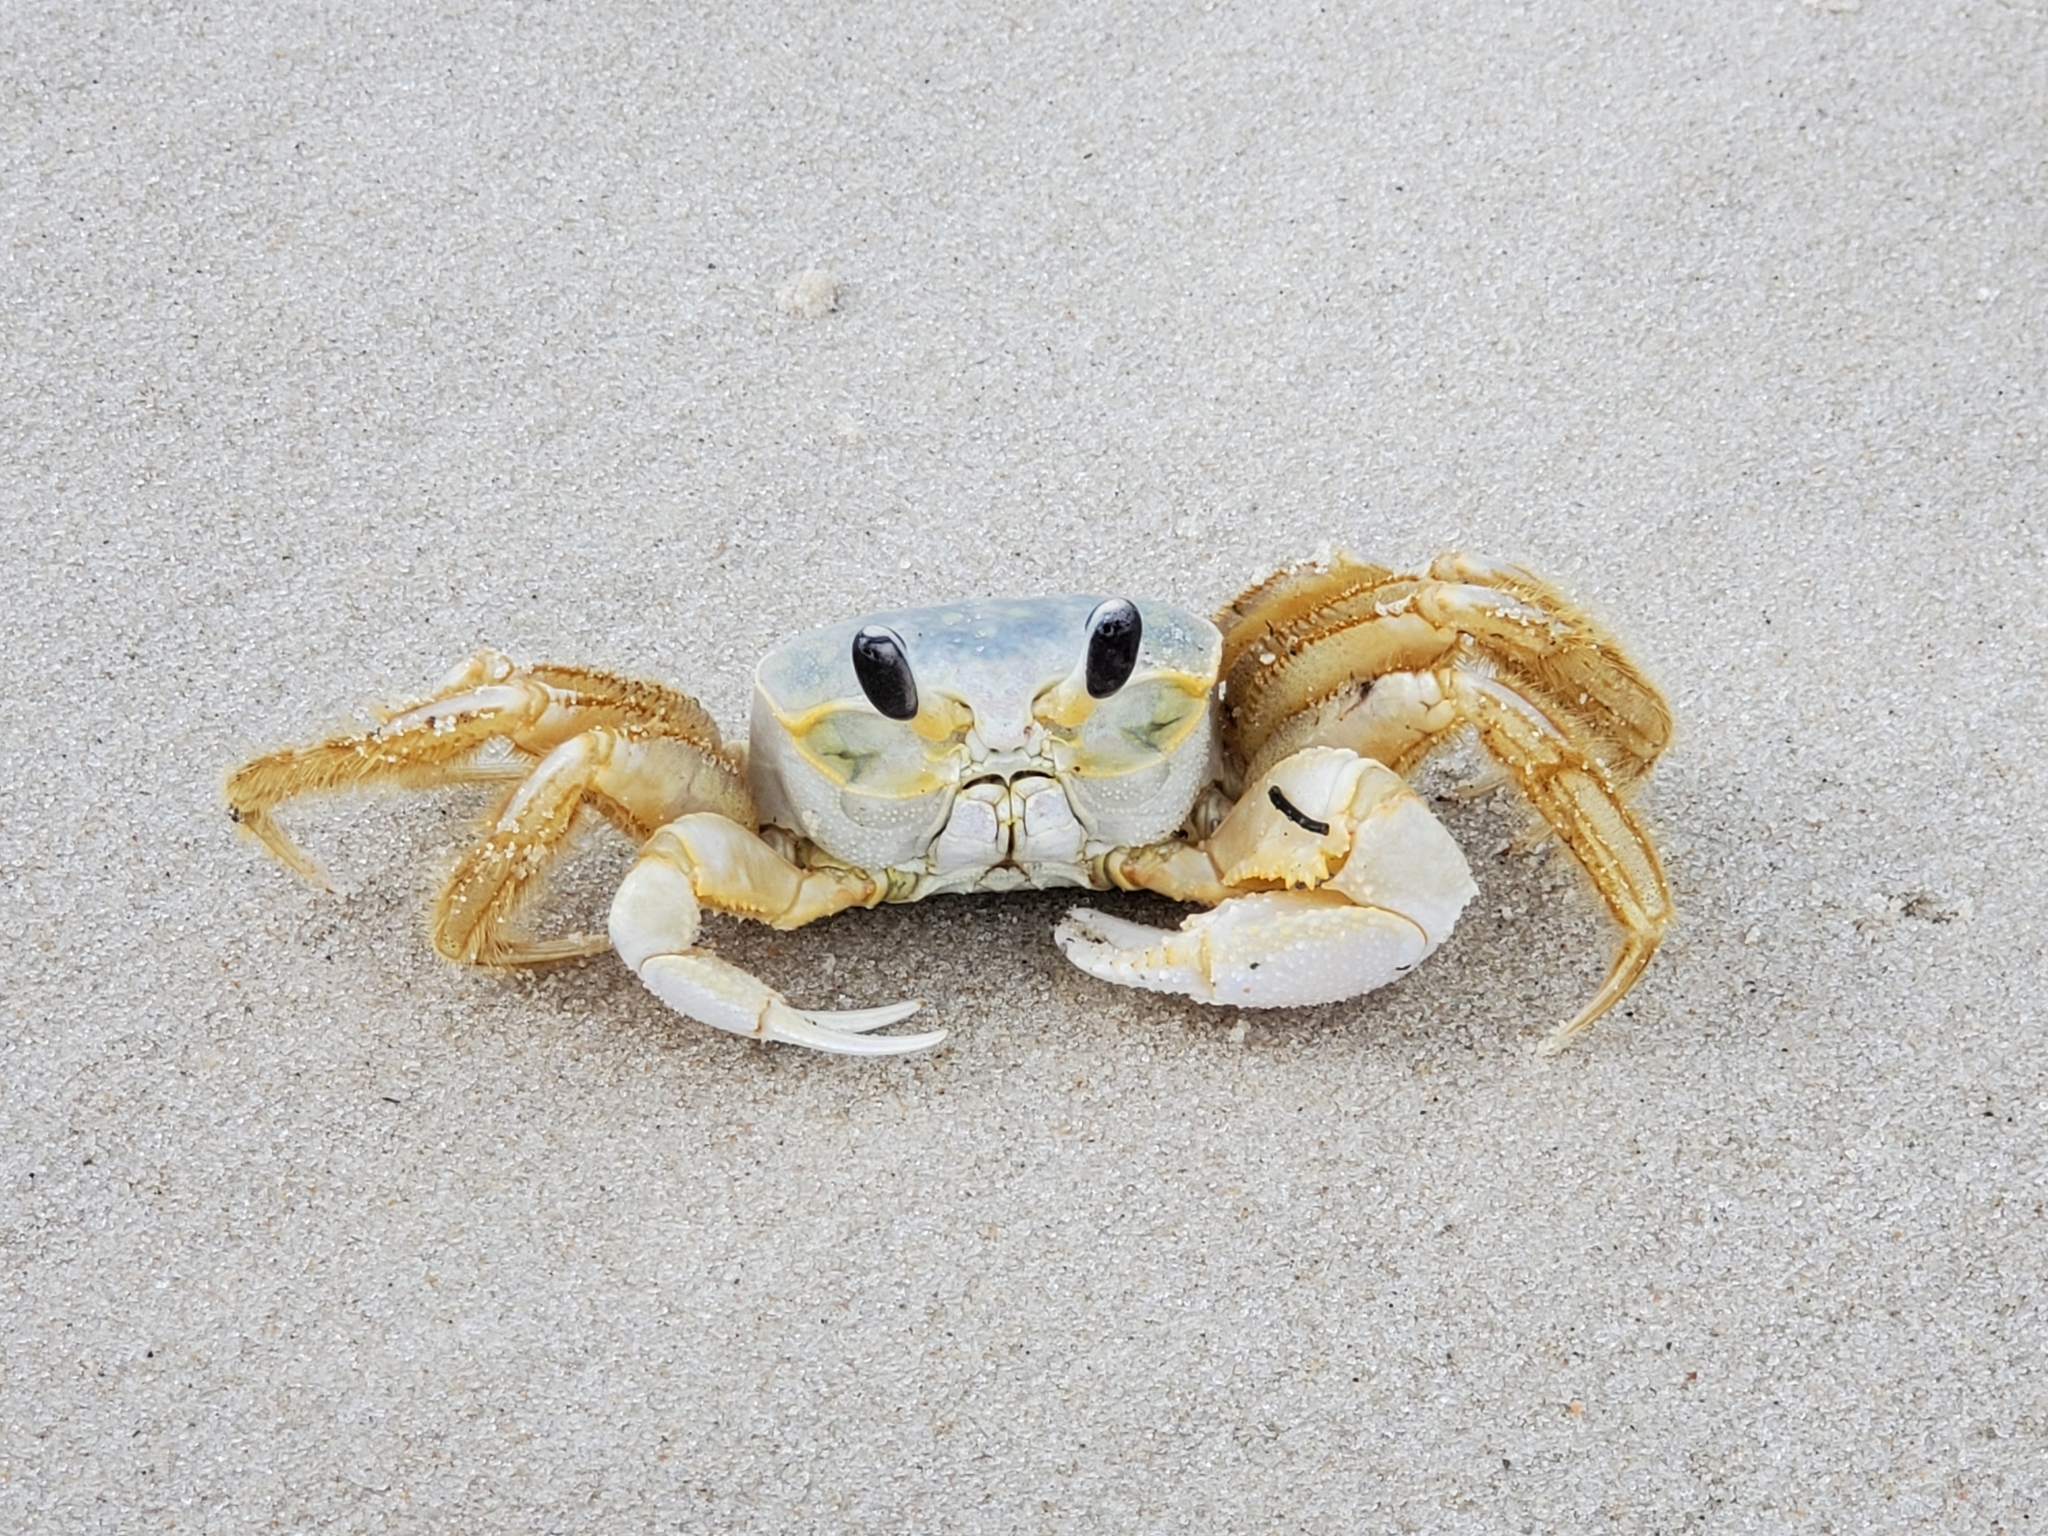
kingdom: Animalia
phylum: Arthropoda
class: Malacostraca
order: Decapoda
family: Ocypodidae
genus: Ocypode
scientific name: Ocypode quadrata
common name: Ghost crab
